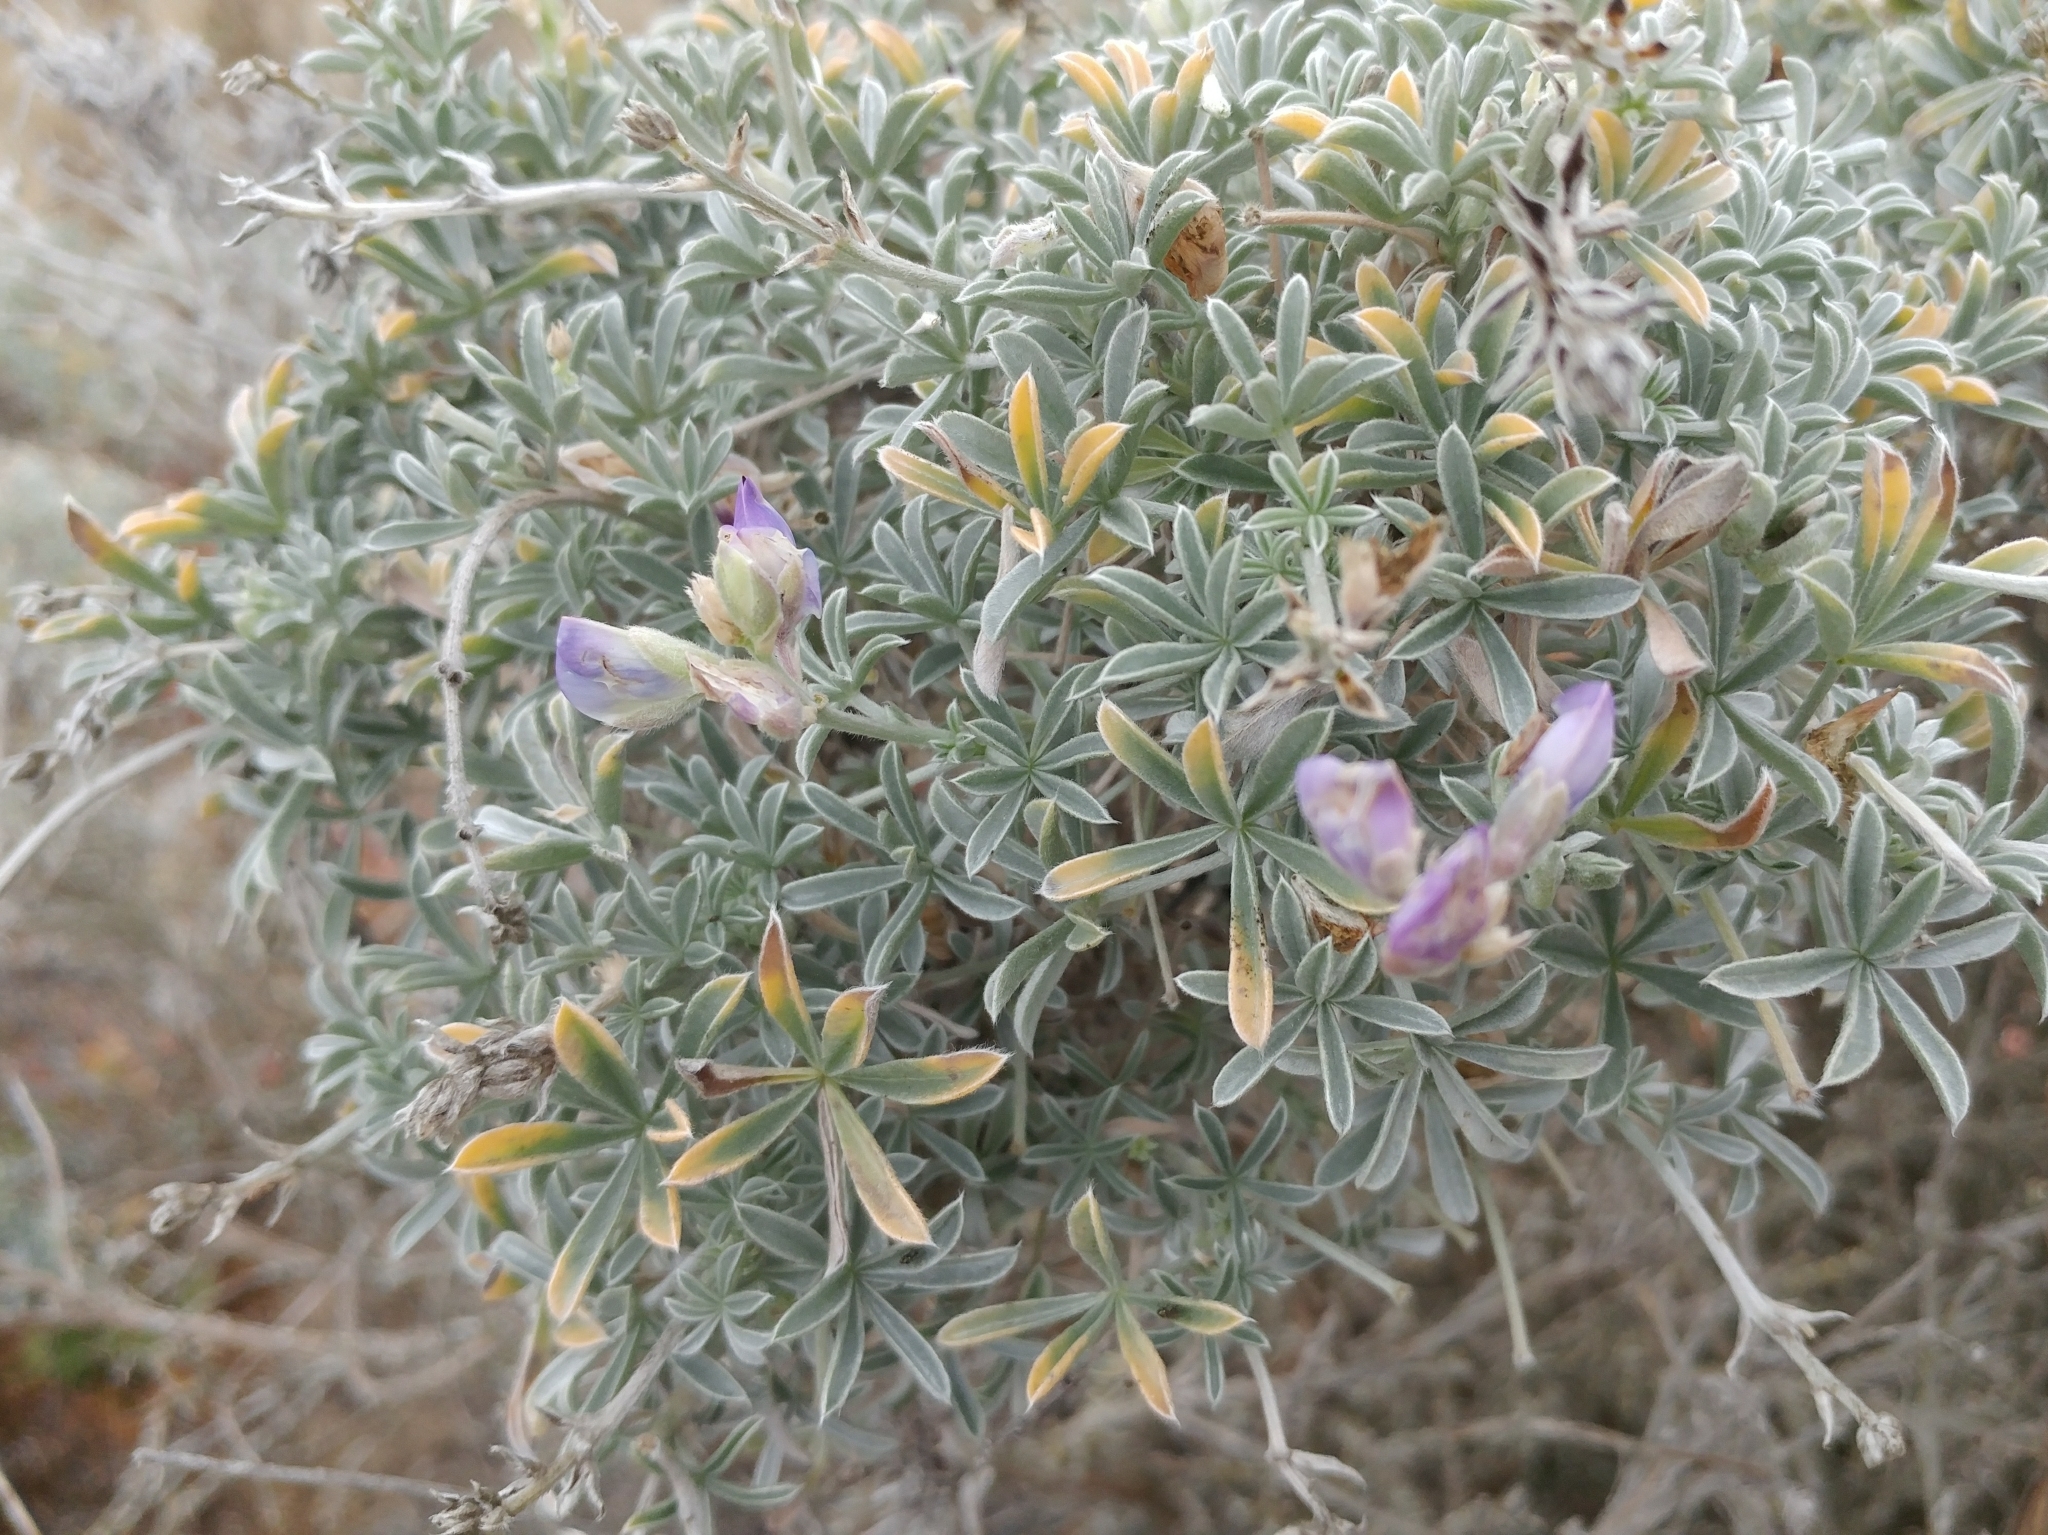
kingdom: Plantae
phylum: Tracheophyta
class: Magnoliopsida
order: Fabales
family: Fabaceae
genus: Lupinus
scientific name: Lupinus albifrons
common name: Foothill lupine
